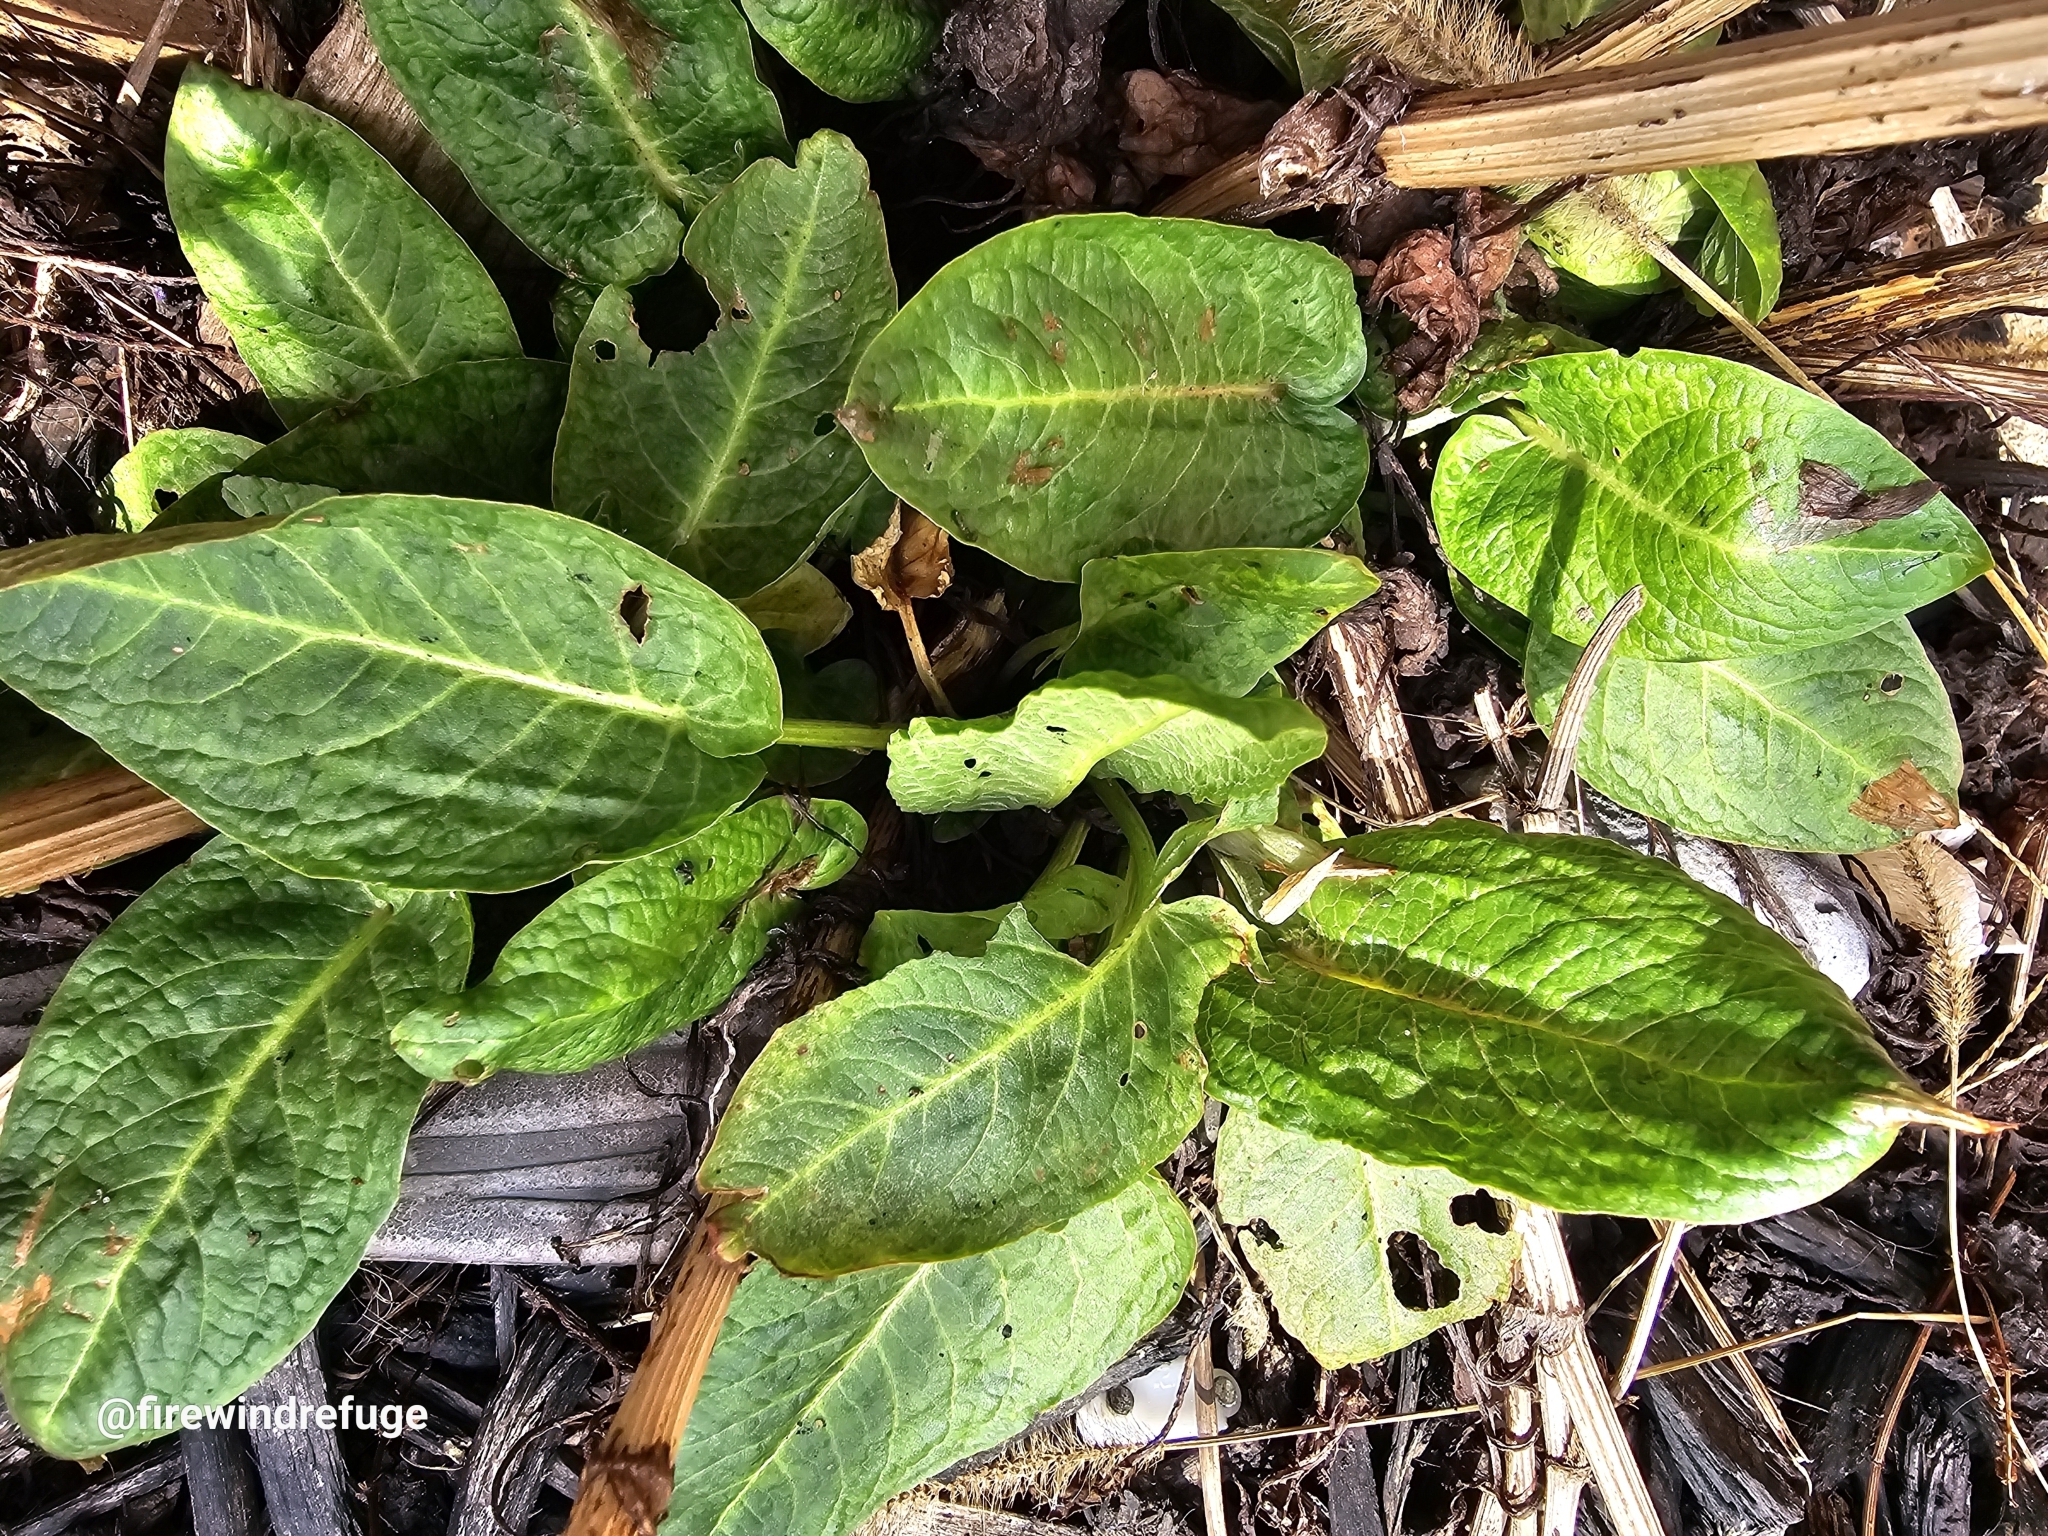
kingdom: Plantae
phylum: Tracheophyta
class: Magnoliopsida
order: Caryophyllales
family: Polygonaceae
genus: Rumex
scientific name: Rumex obtusifolius
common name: Bitter dock
